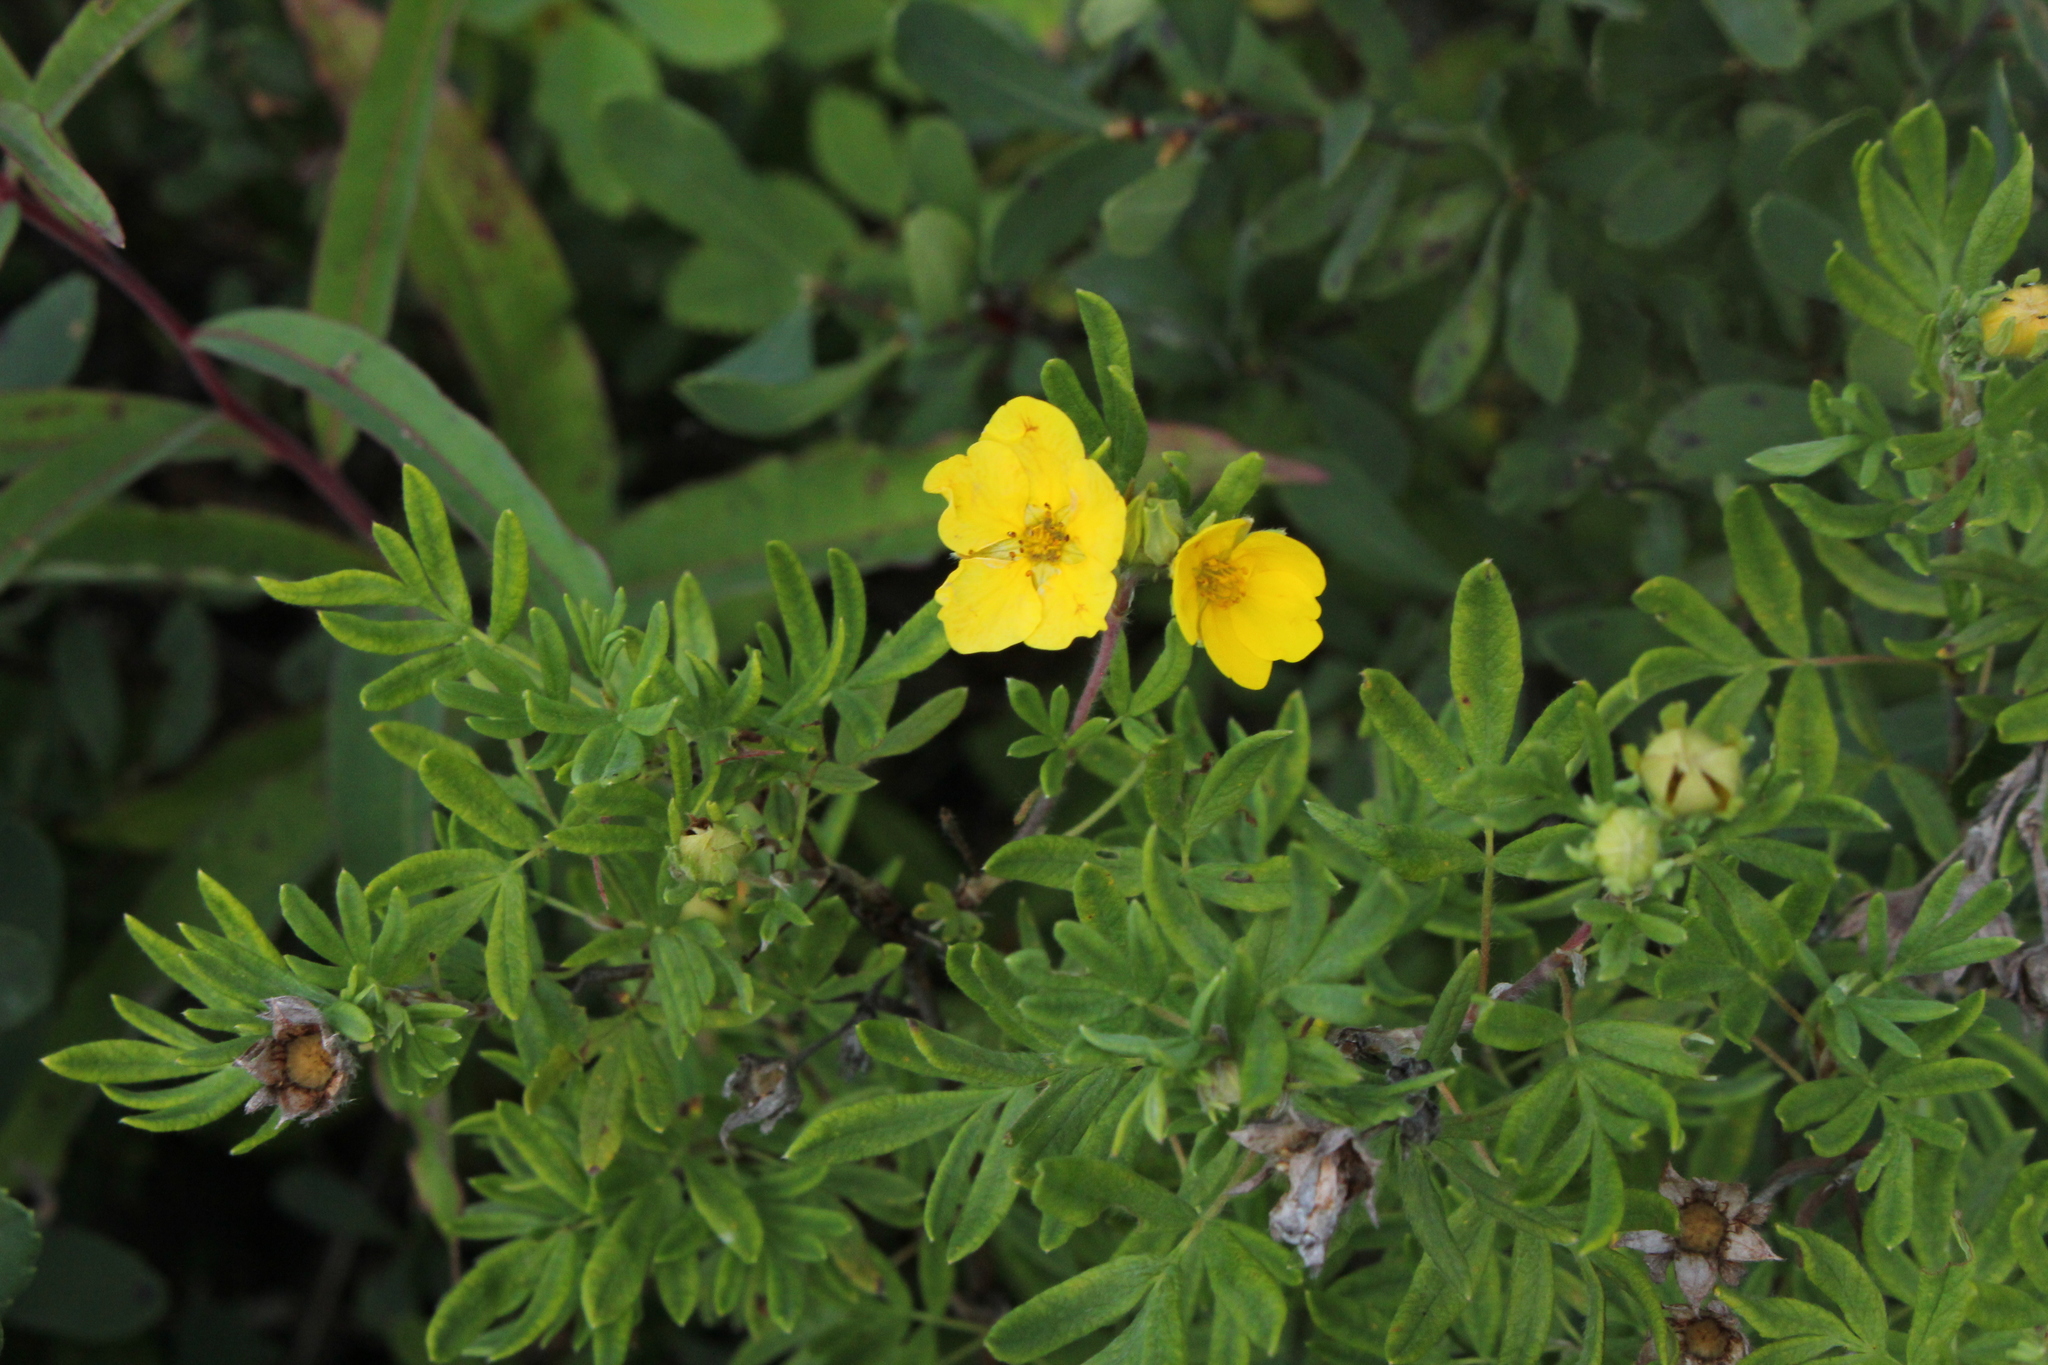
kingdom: Plantae
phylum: Tracheophyta
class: Magnoliopsida
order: Rosales
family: Rosaceae
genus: Dasiphora
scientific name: Dasiphora fruticosa
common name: Shrubby cinquefoil
